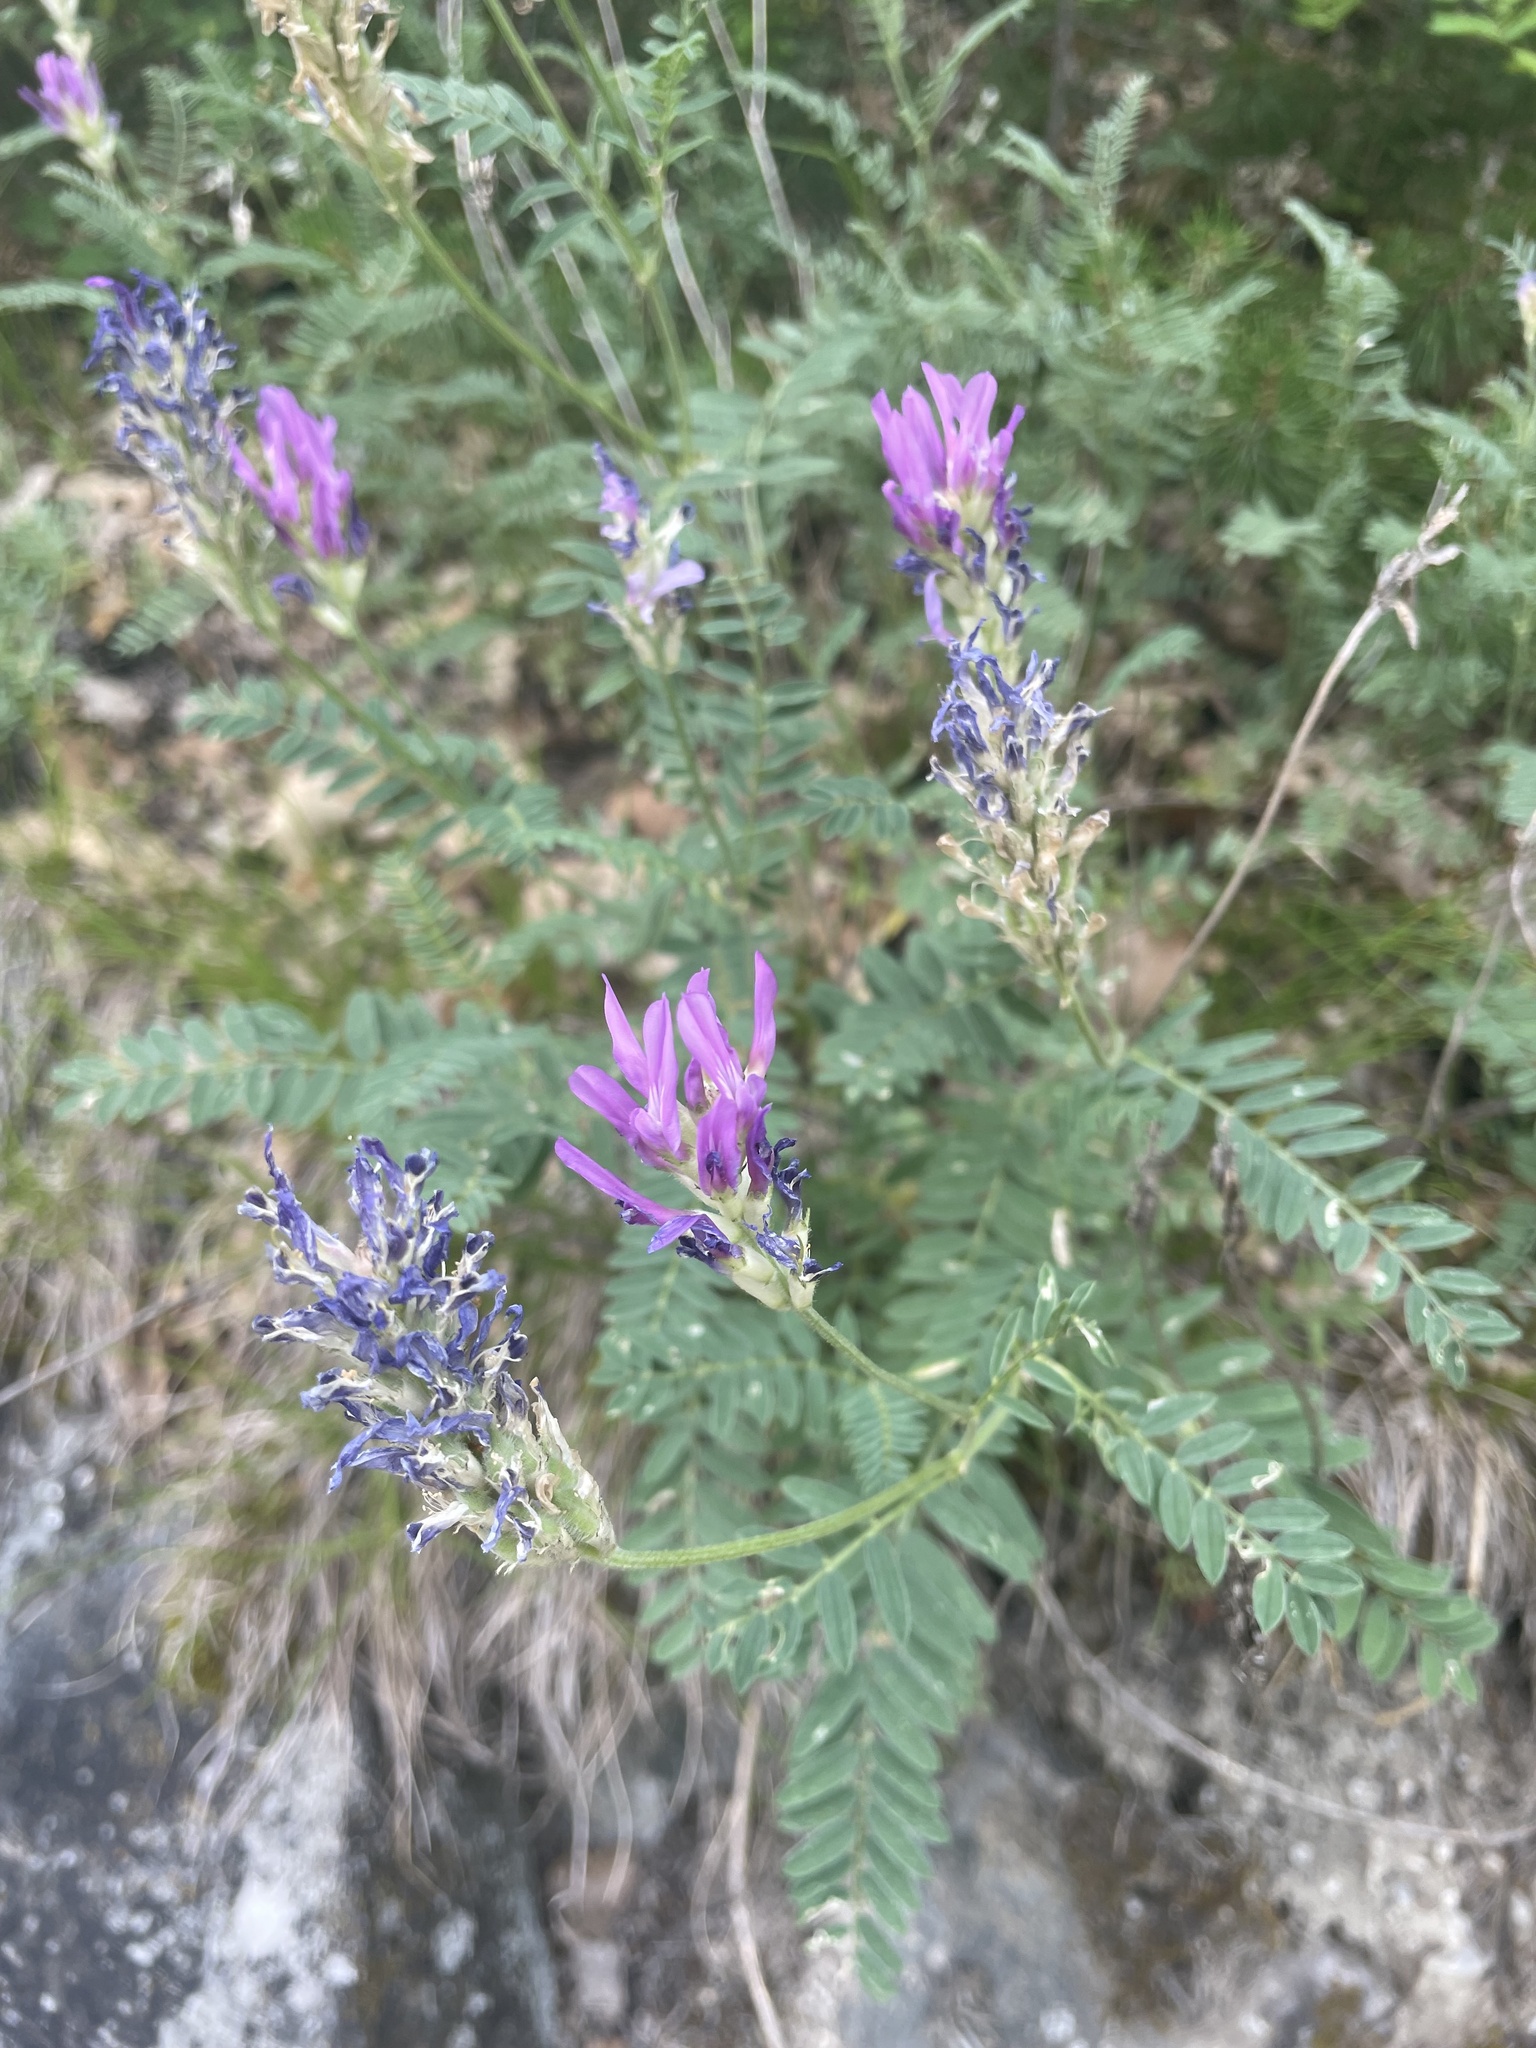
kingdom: Plantae
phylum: Tracheophyta
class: Magnoliopsida
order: Fabales
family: Fabaceae
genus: Astragalus
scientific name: Astragalus onobrychis
